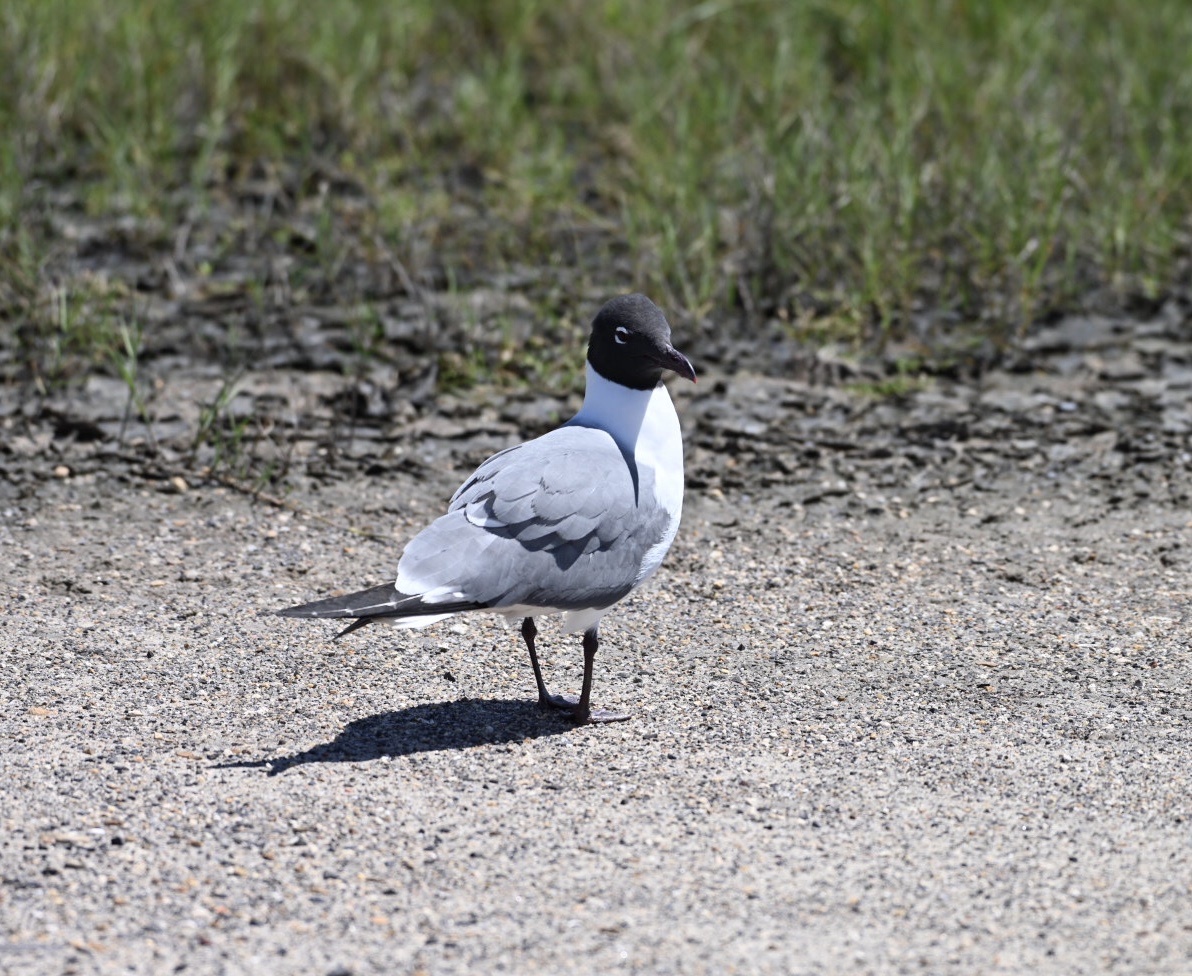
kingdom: Animalia
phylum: Chordata
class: Aves
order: Charadriiformes
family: Laridae
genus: Leucophaeus
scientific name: Leucophaeus atricilla
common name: Laughing gull
